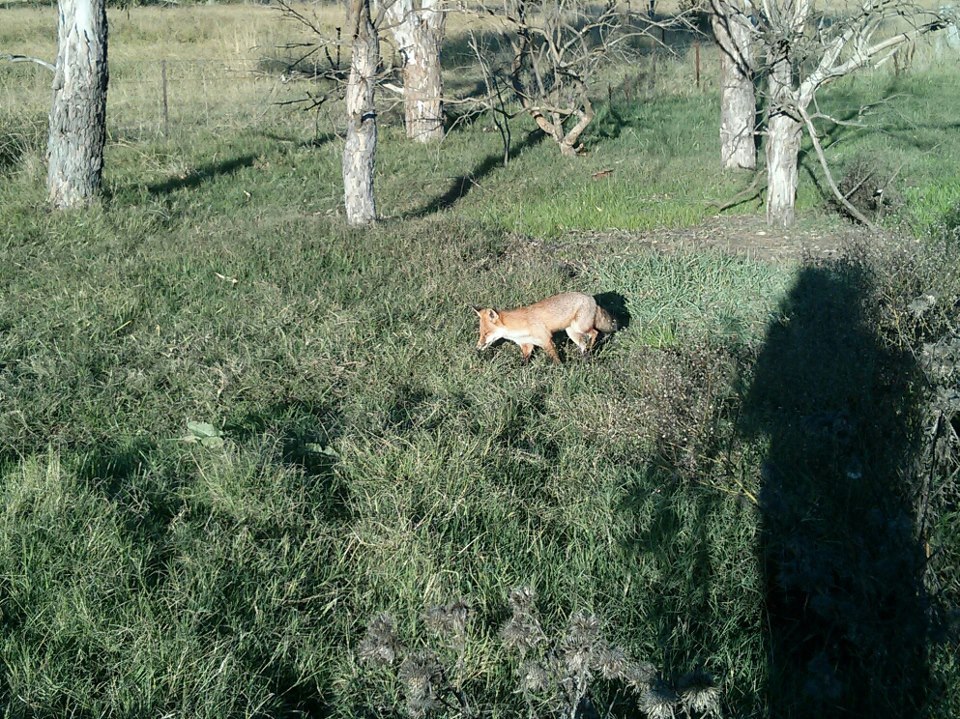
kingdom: Animalia
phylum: Chordata
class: Mammalia
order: Carnivora
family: Canidae
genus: Vulpes
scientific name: Vulpes vulpes
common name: Red fox
